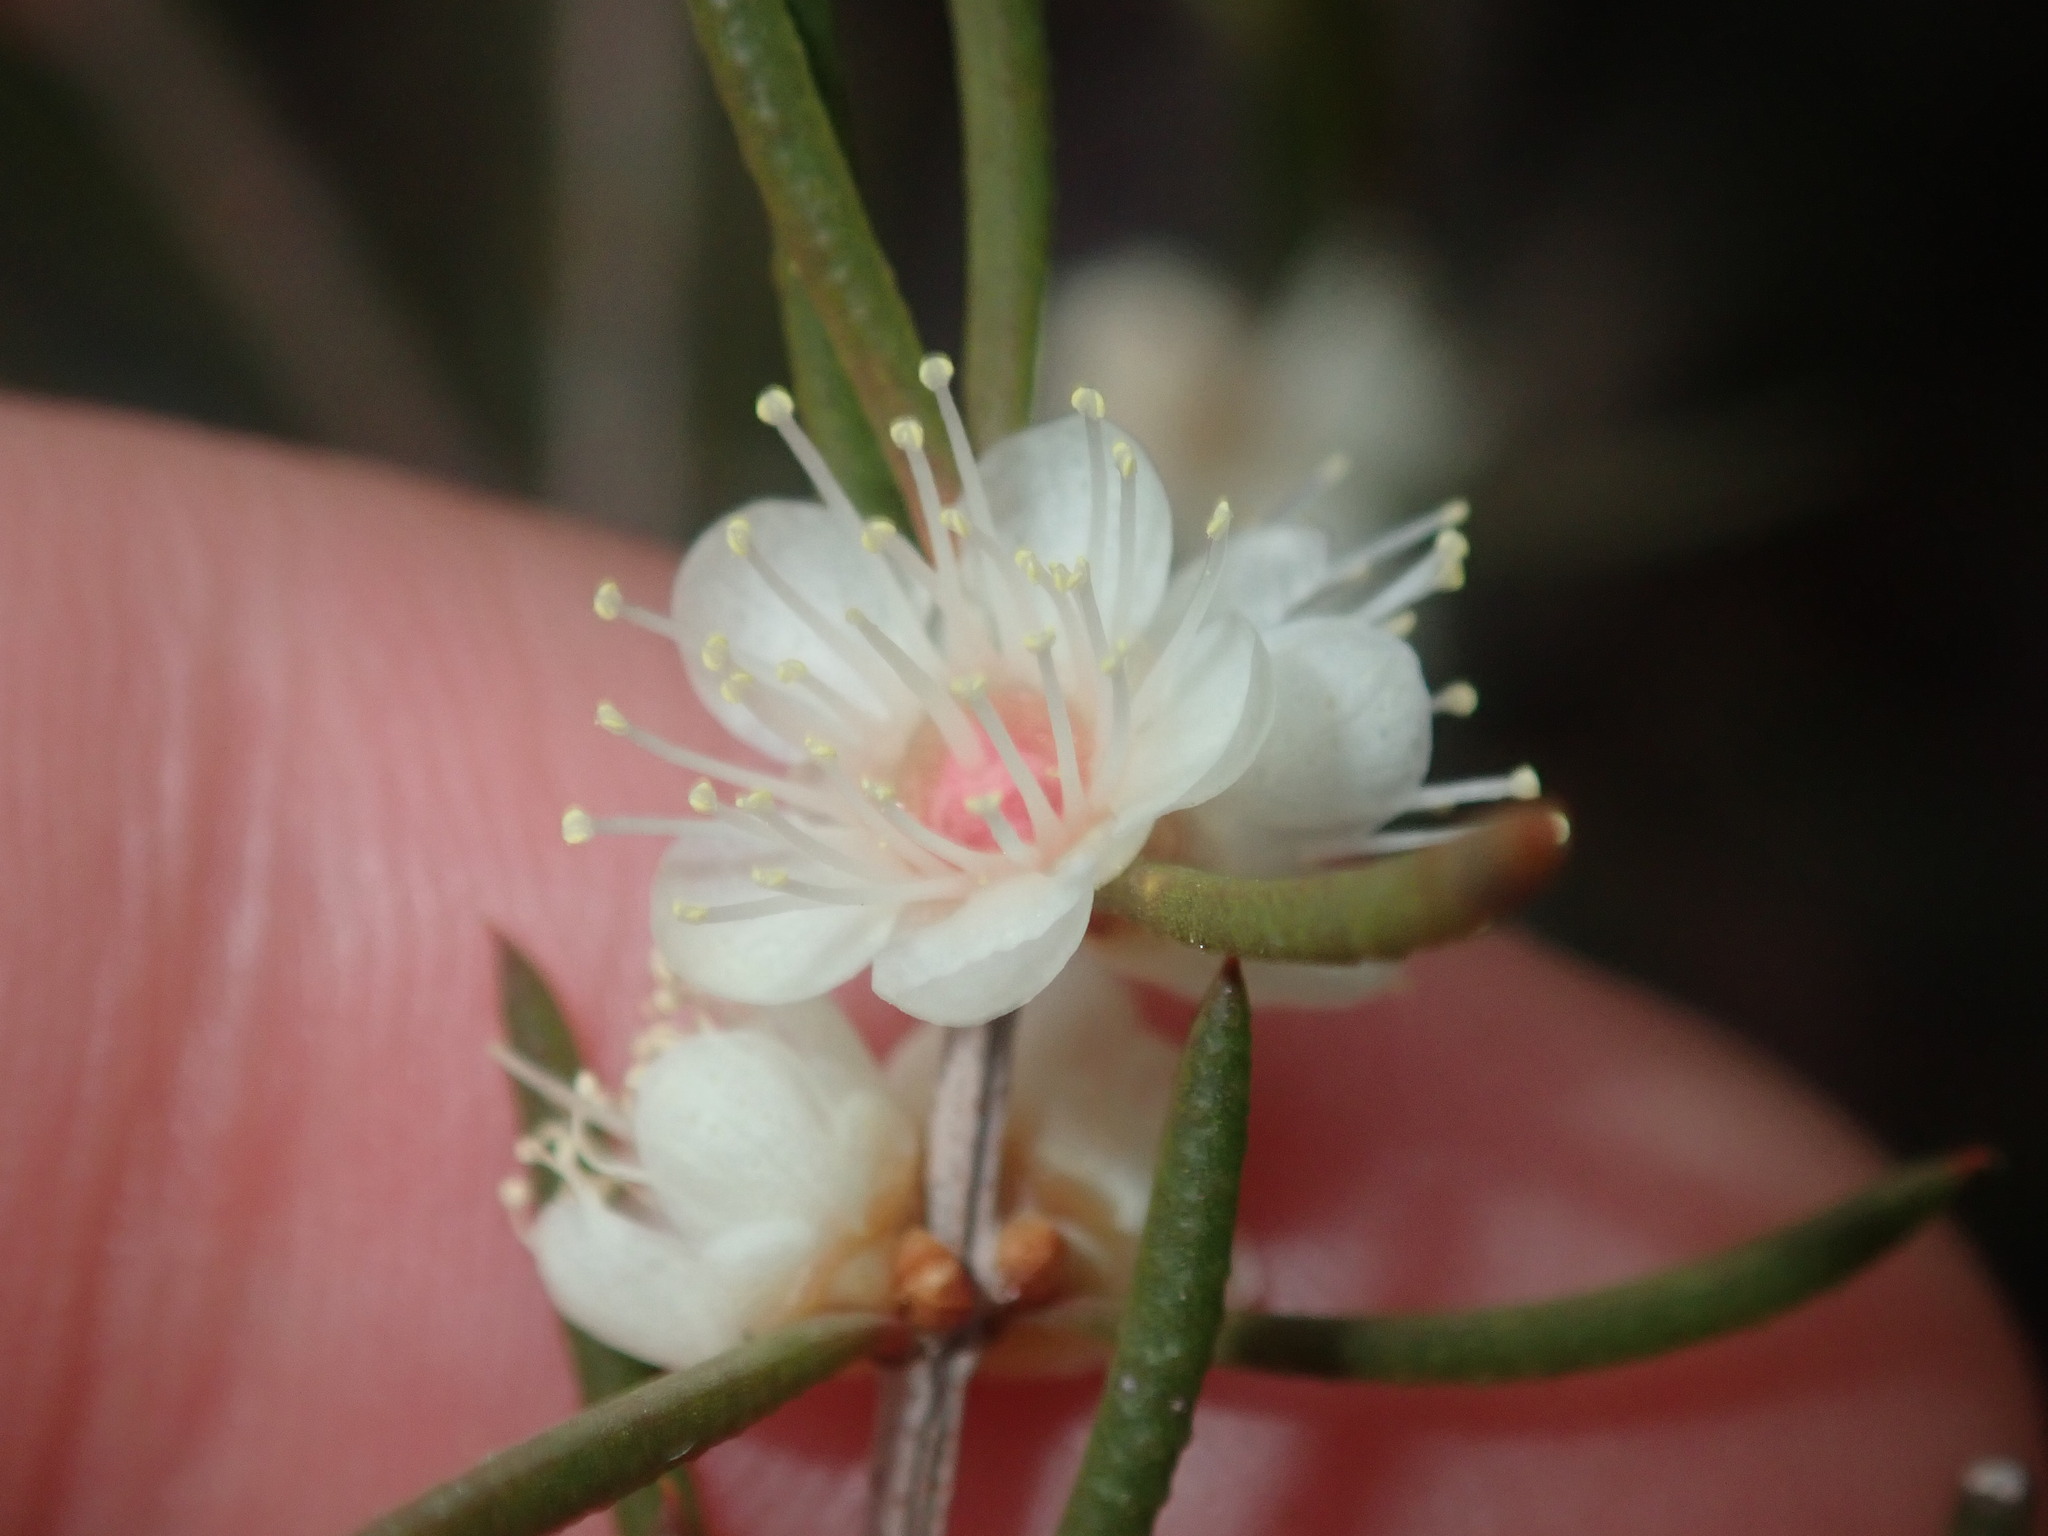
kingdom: Plantae
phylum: Tracheophyta
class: Magnoliopsida
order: Myrtales
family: Myrtaceae
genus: Hypocalymma
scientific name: Hypocalymma angustifolium
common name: White myrtle
